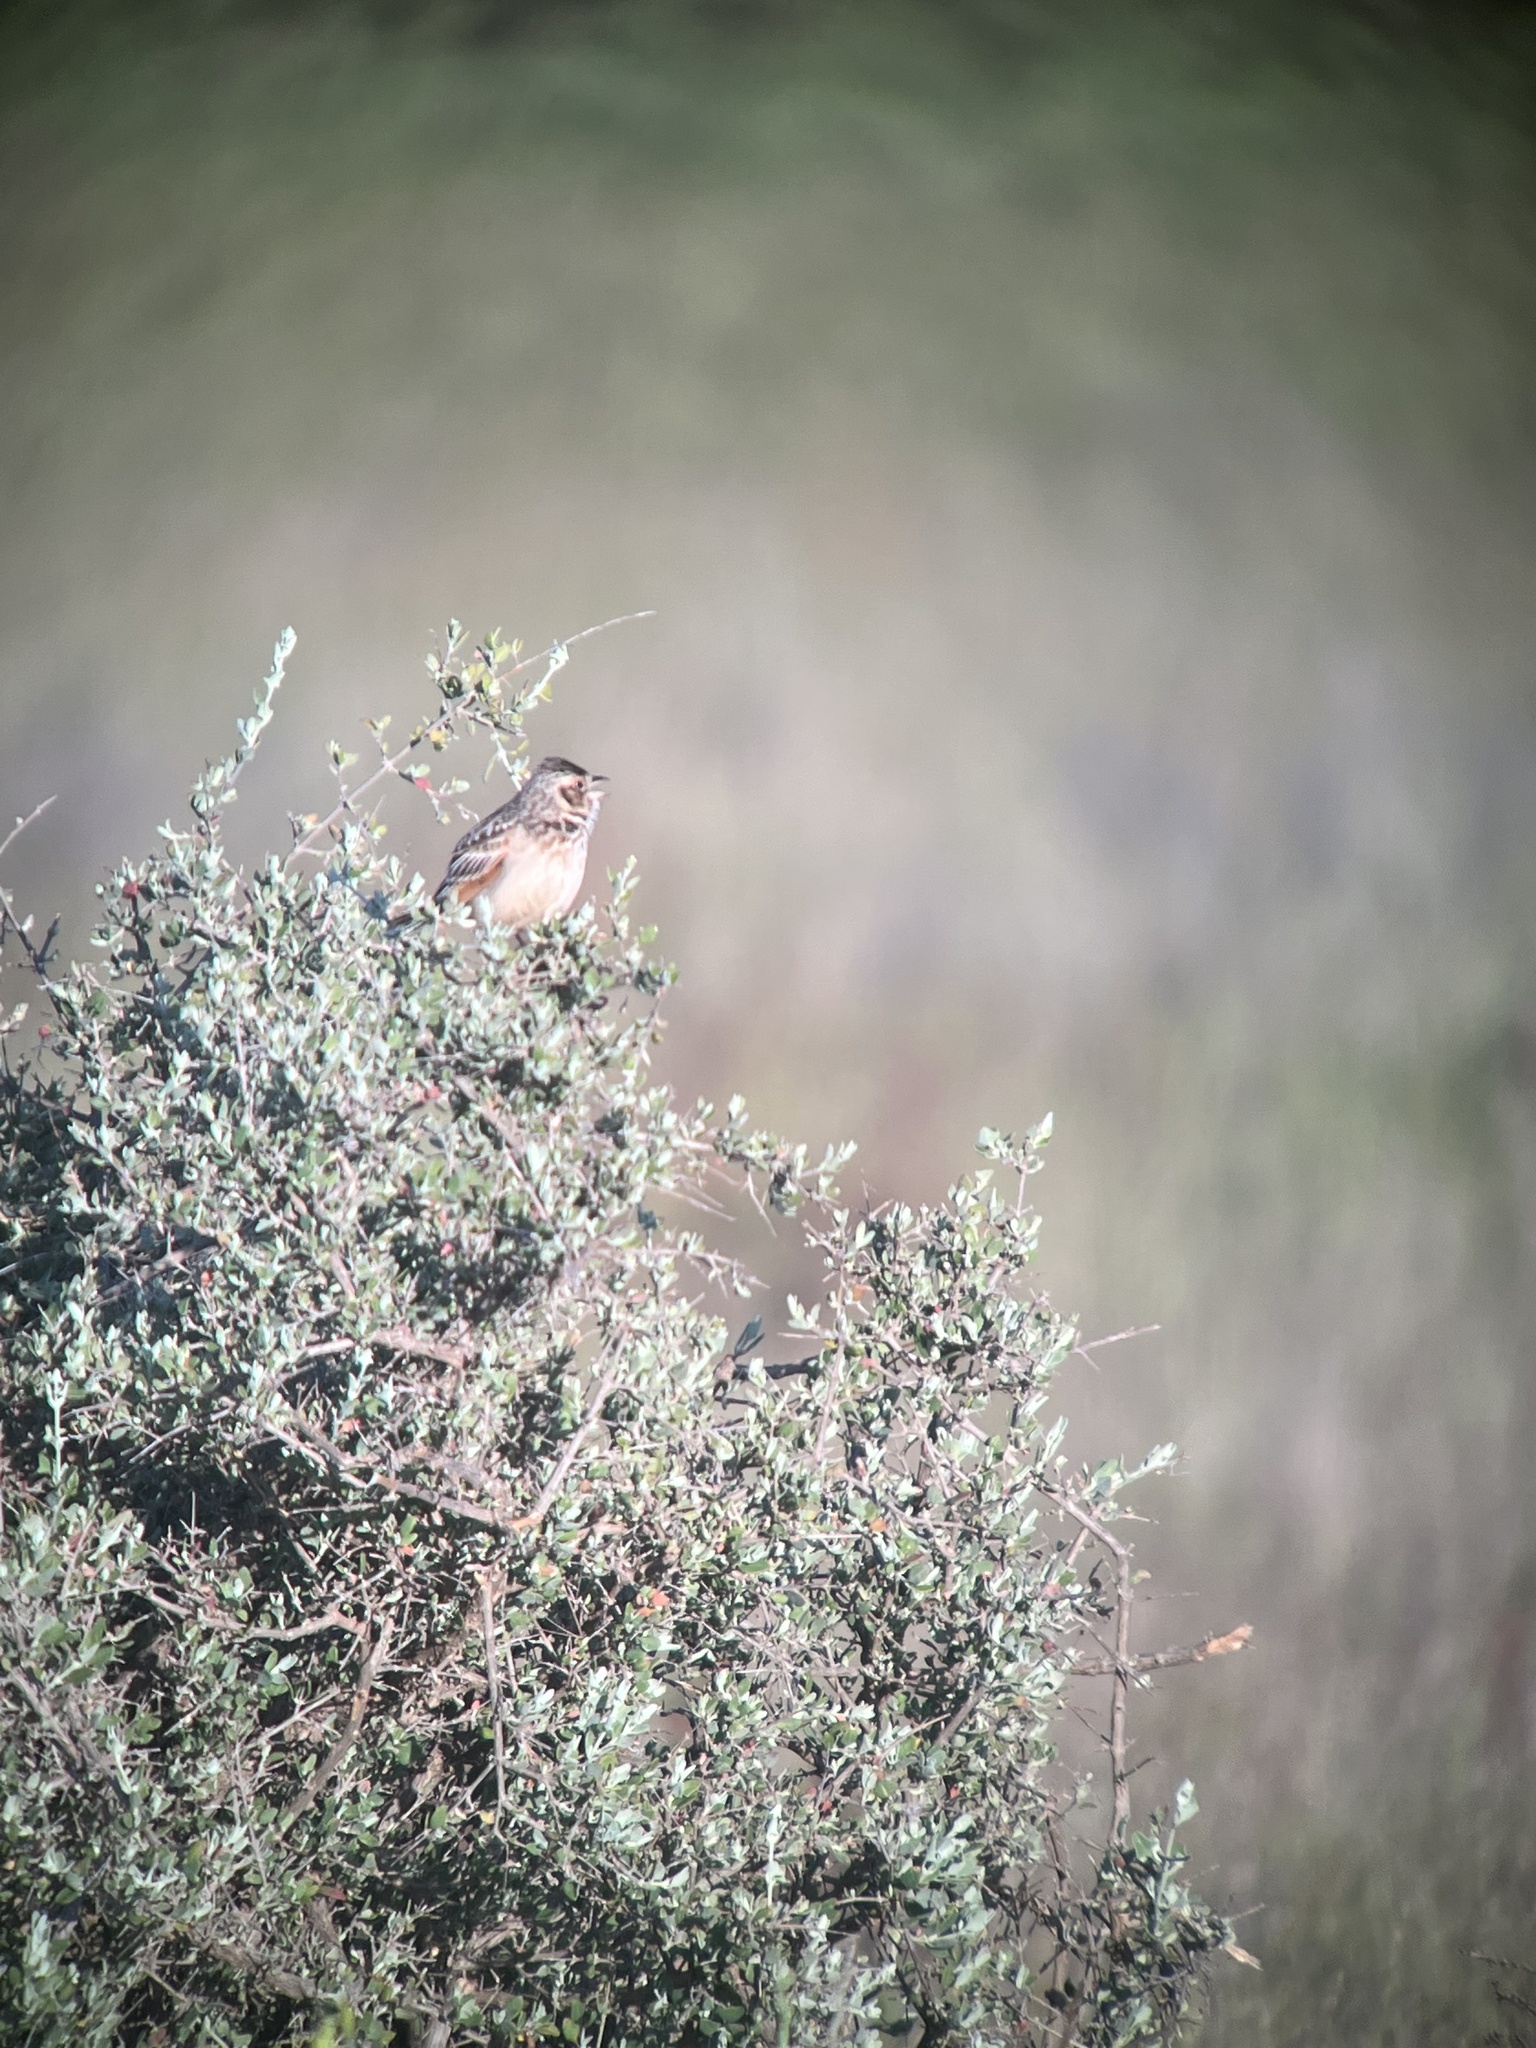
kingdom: Animalia
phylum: Chordata
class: Aves
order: Passeriformes
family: Alaudidae
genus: Mirafra
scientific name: Mirafra javanica
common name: Horsfield's bush lark
